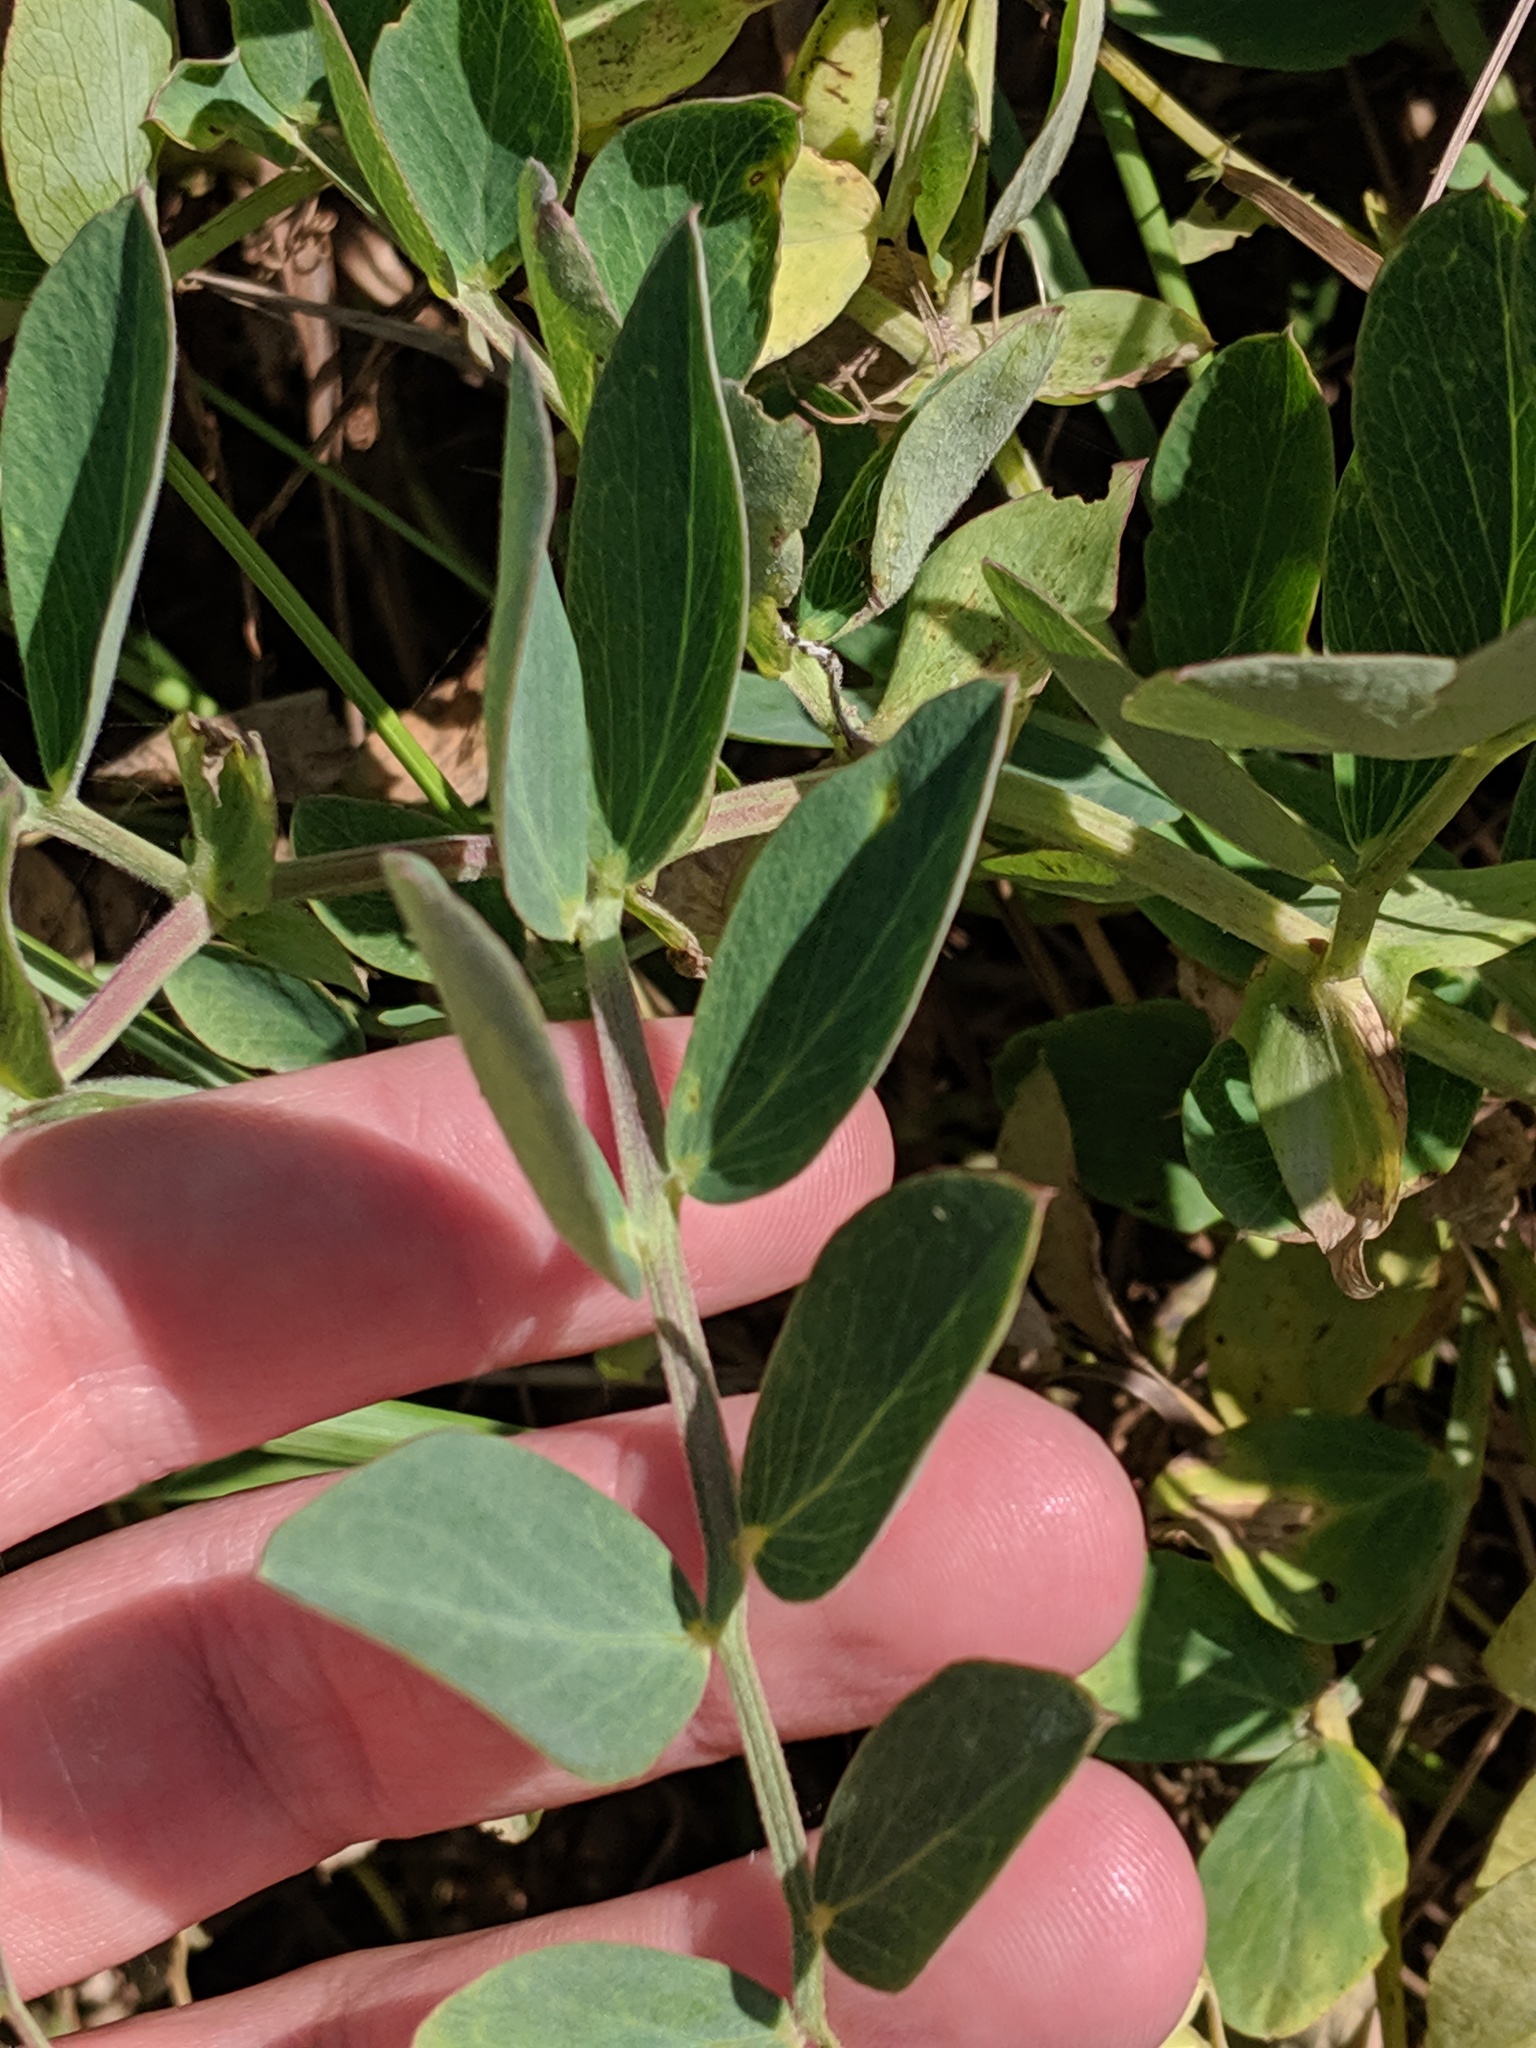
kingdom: Plantae
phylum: Tracheophyta
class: Magnoliopsida
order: Fabales
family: Fabaceae
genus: Lathyrus
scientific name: Lathyrus japonicus
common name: Sea pea
